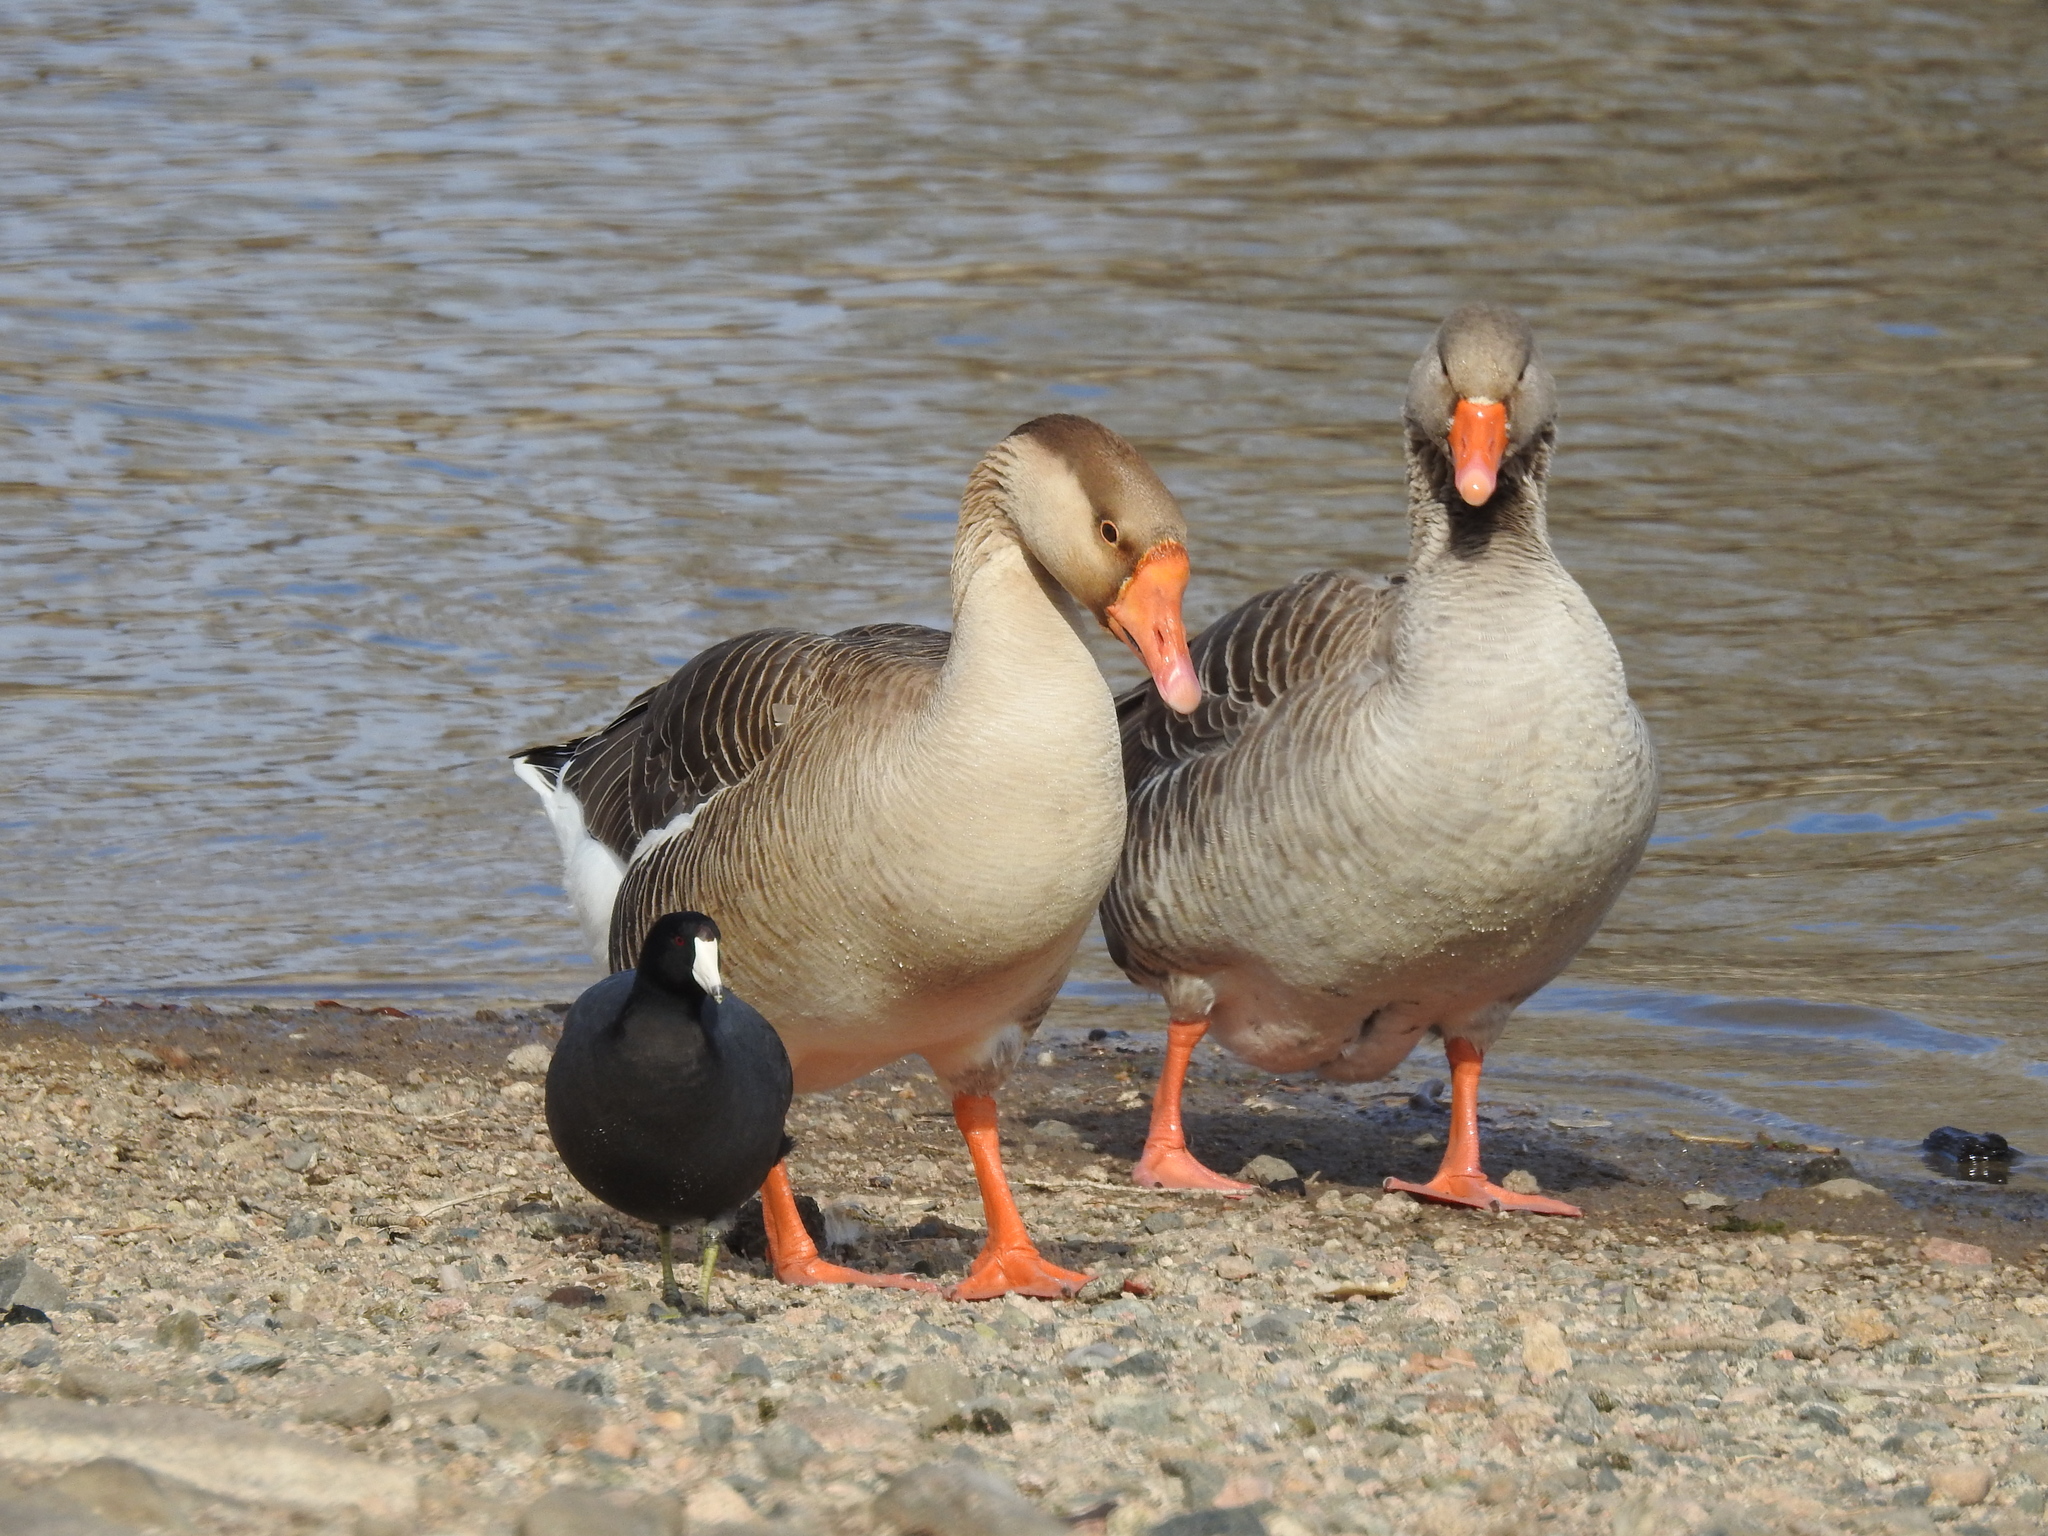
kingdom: Animalia
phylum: Chordata
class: Aves
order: Anseriformes
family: Anatidae
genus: Anser
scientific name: Anser anser
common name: Greylag goose
